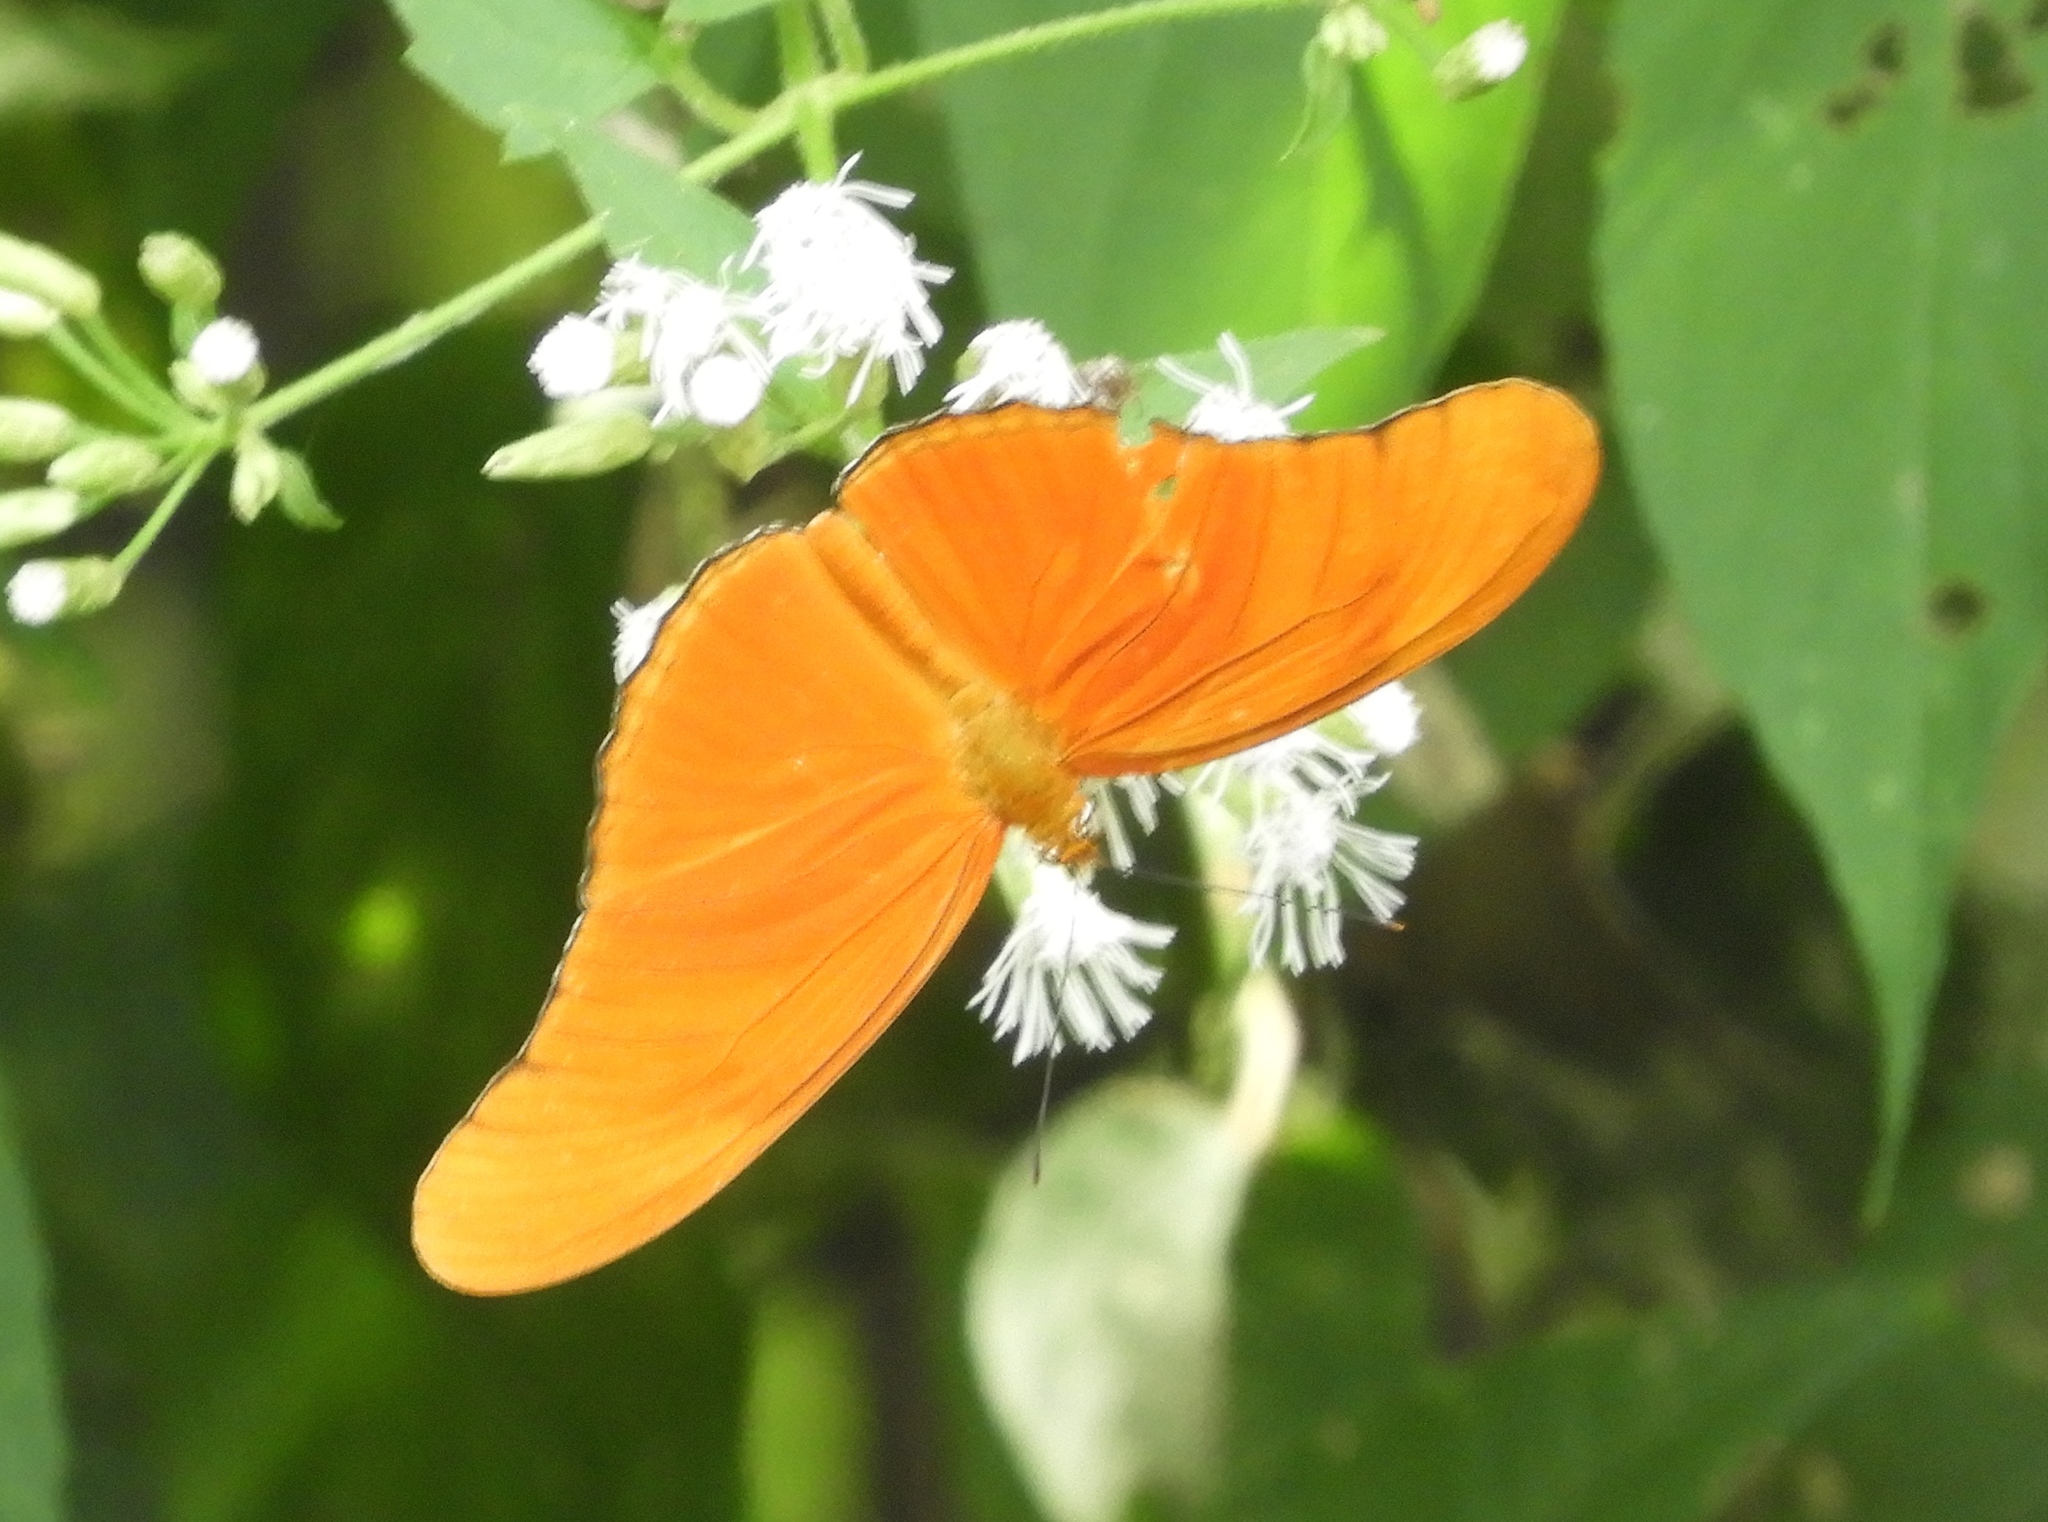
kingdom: Animalia
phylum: Arthropoda
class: Insecta
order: Lepidoptera
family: Nymphalidae
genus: Dryas
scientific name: Dryas iulia
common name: Flambeau
